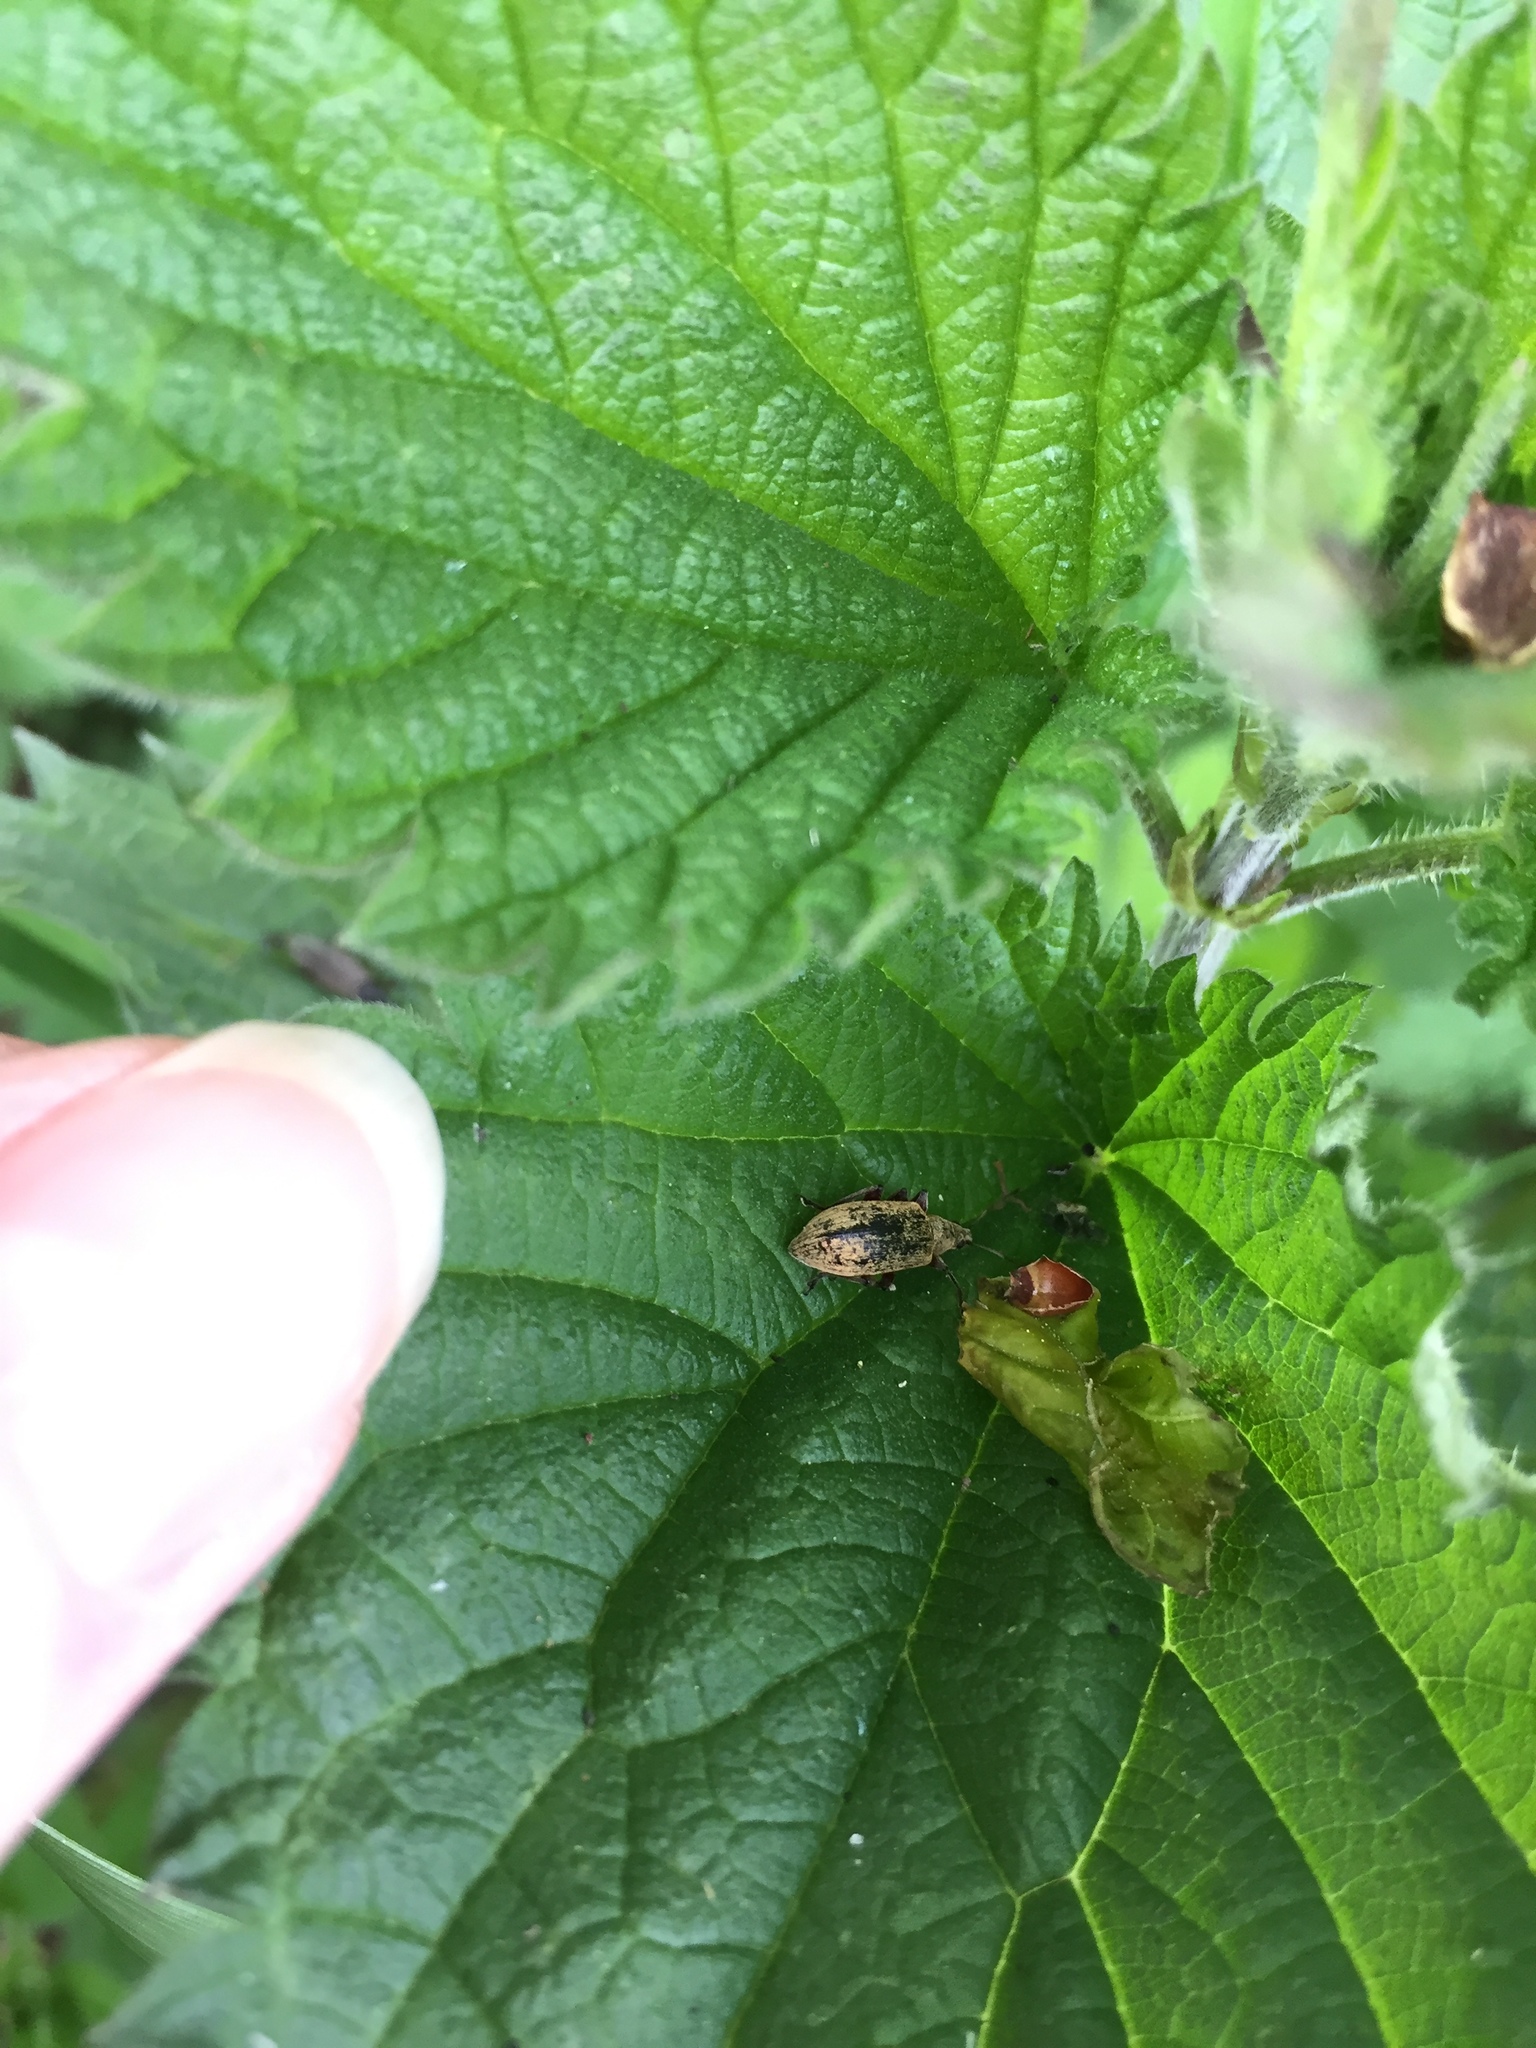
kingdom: Animalia
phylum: Arthropoda
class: Insecta
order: Coleoptera
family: Curculionidae
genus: Phyllobius
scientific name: Phyllobius pomaceus
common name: Green nettle weevil
